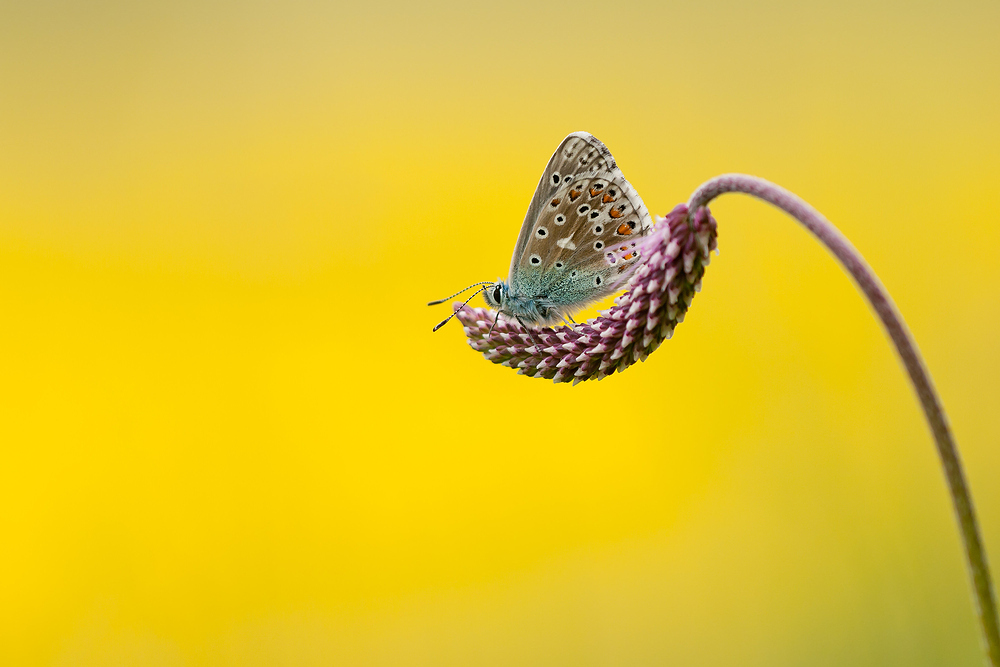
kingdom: Animalia
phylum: Arthropoda
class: Insecta
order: Lepidoptera
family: Lycaenidae
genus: Lysandra
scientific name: Lysandra bellargus
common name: Adonis blue
